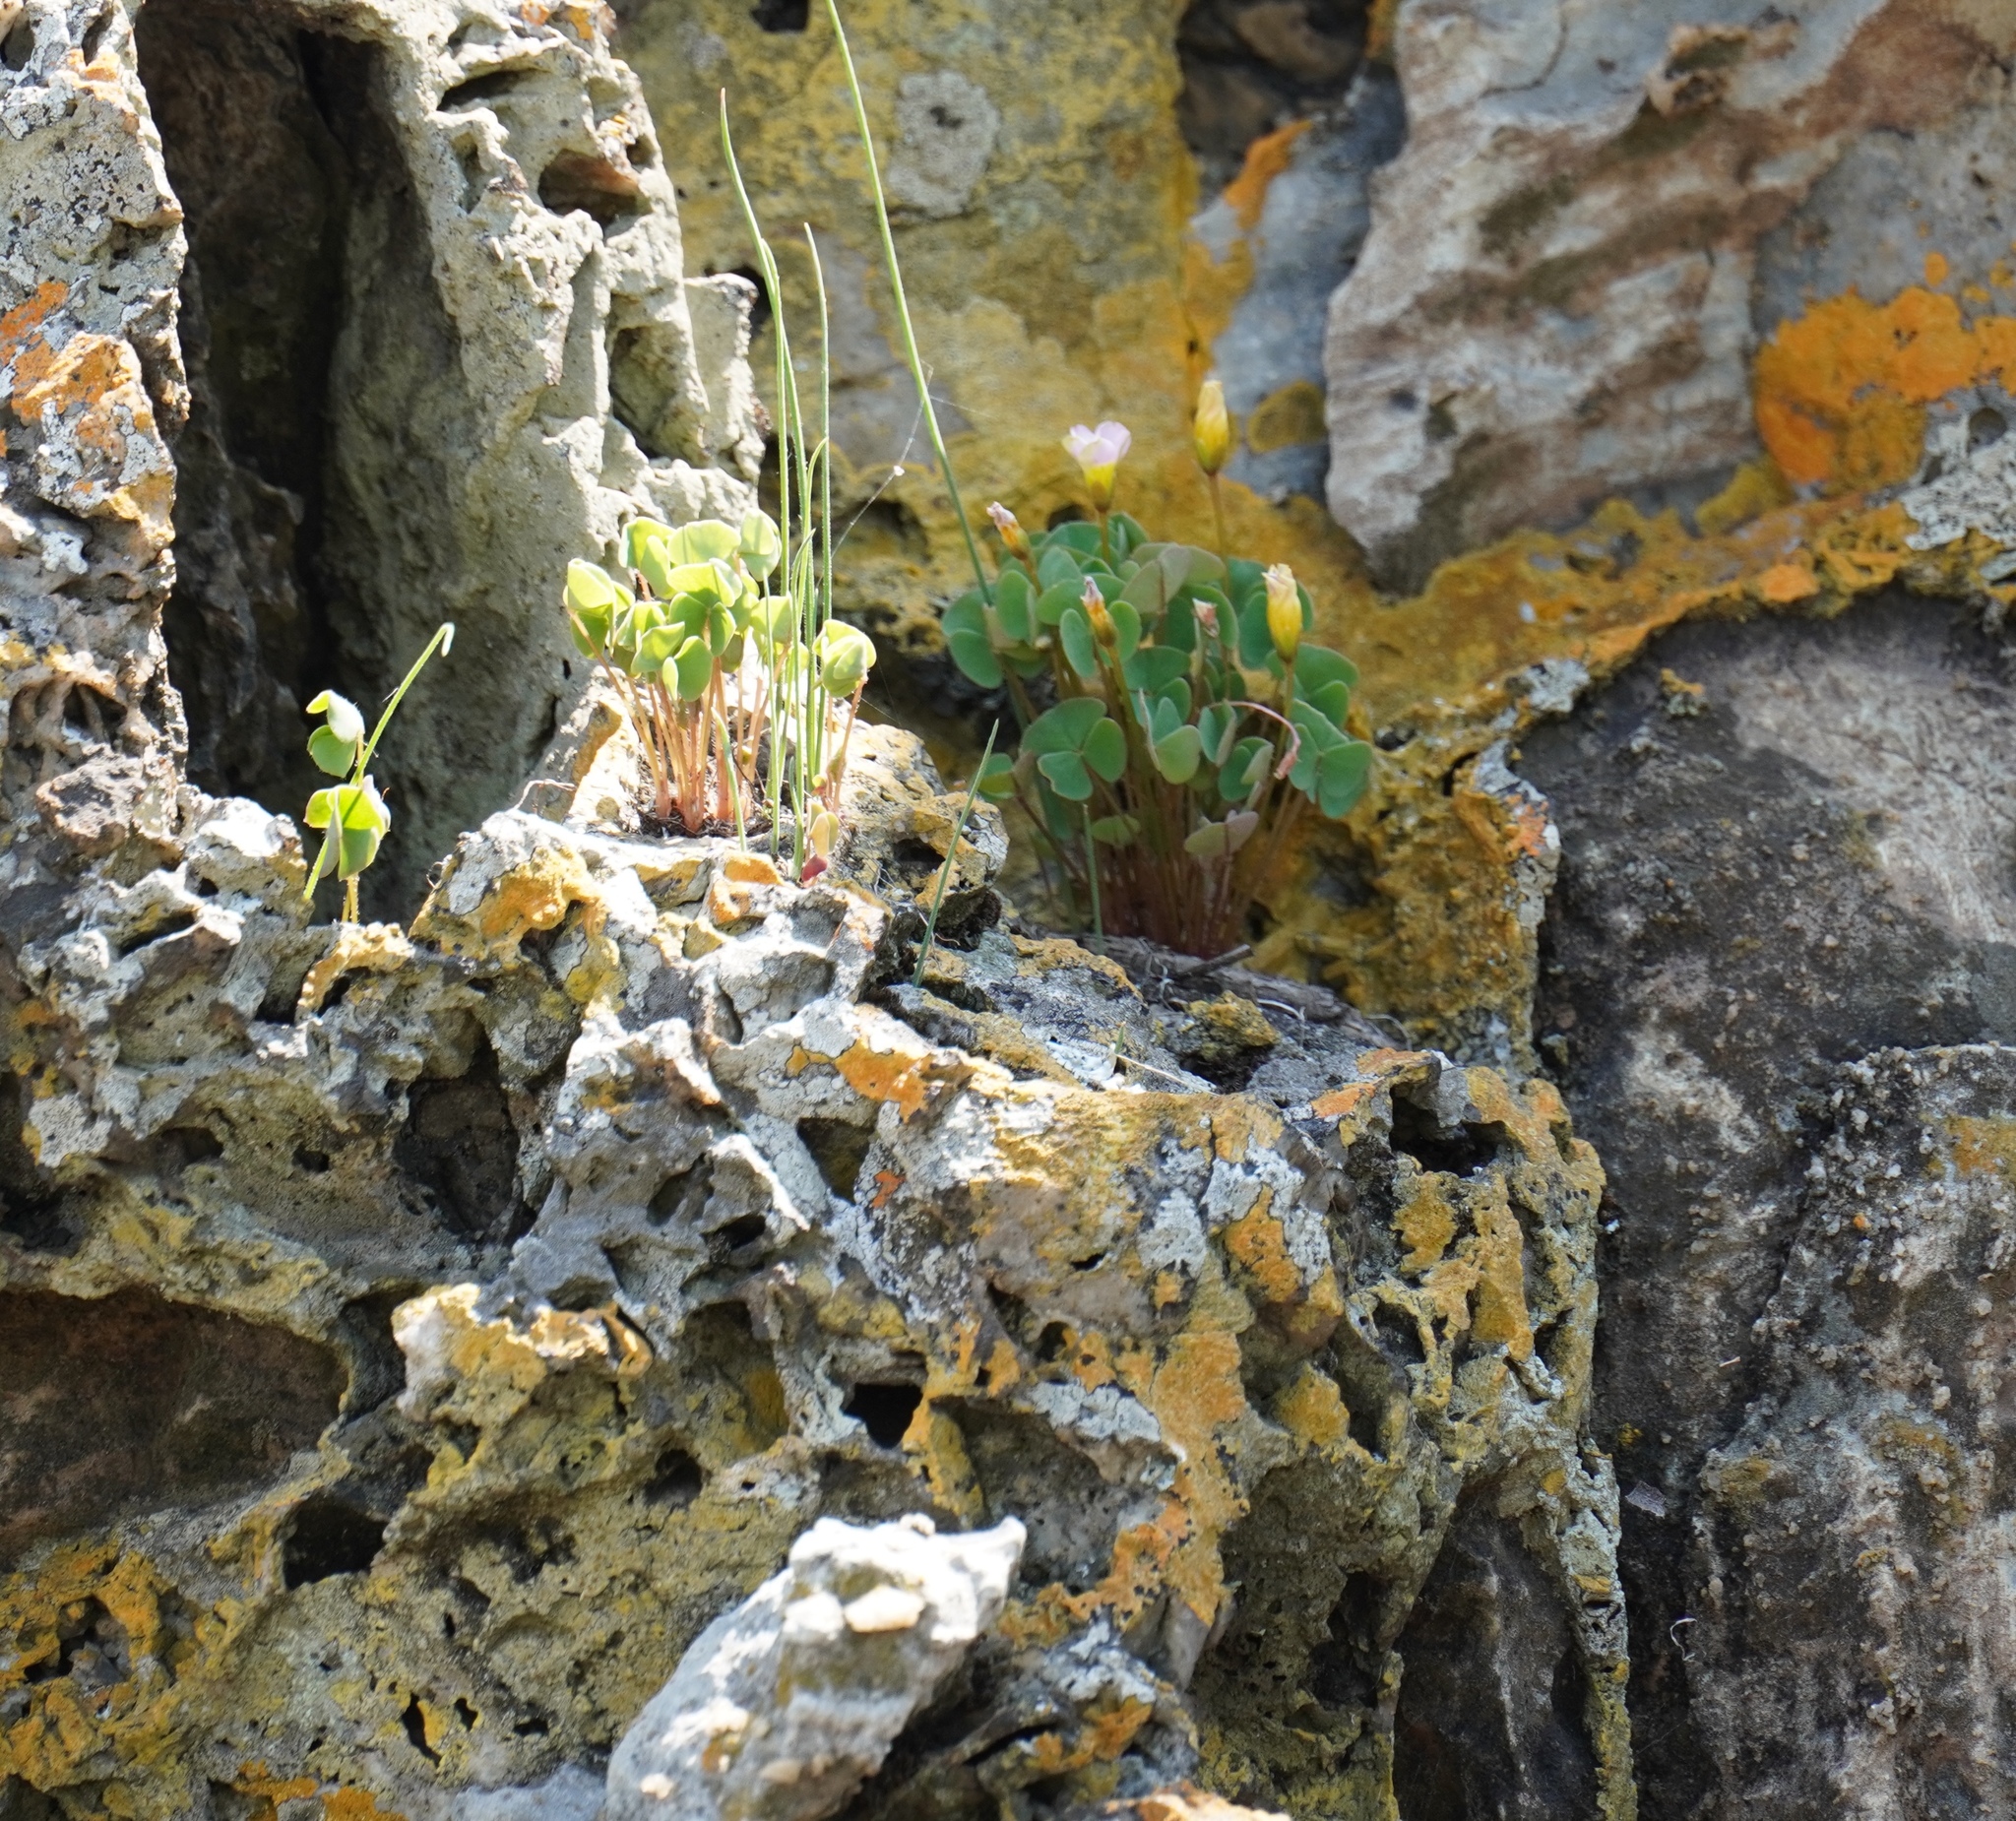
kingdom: Plantae
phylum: Tracheophyta
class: Magnoliopsida
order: Oxalidales
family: Oxalidaceae
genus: Oxalis
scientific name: Oxalis obliquifolia
